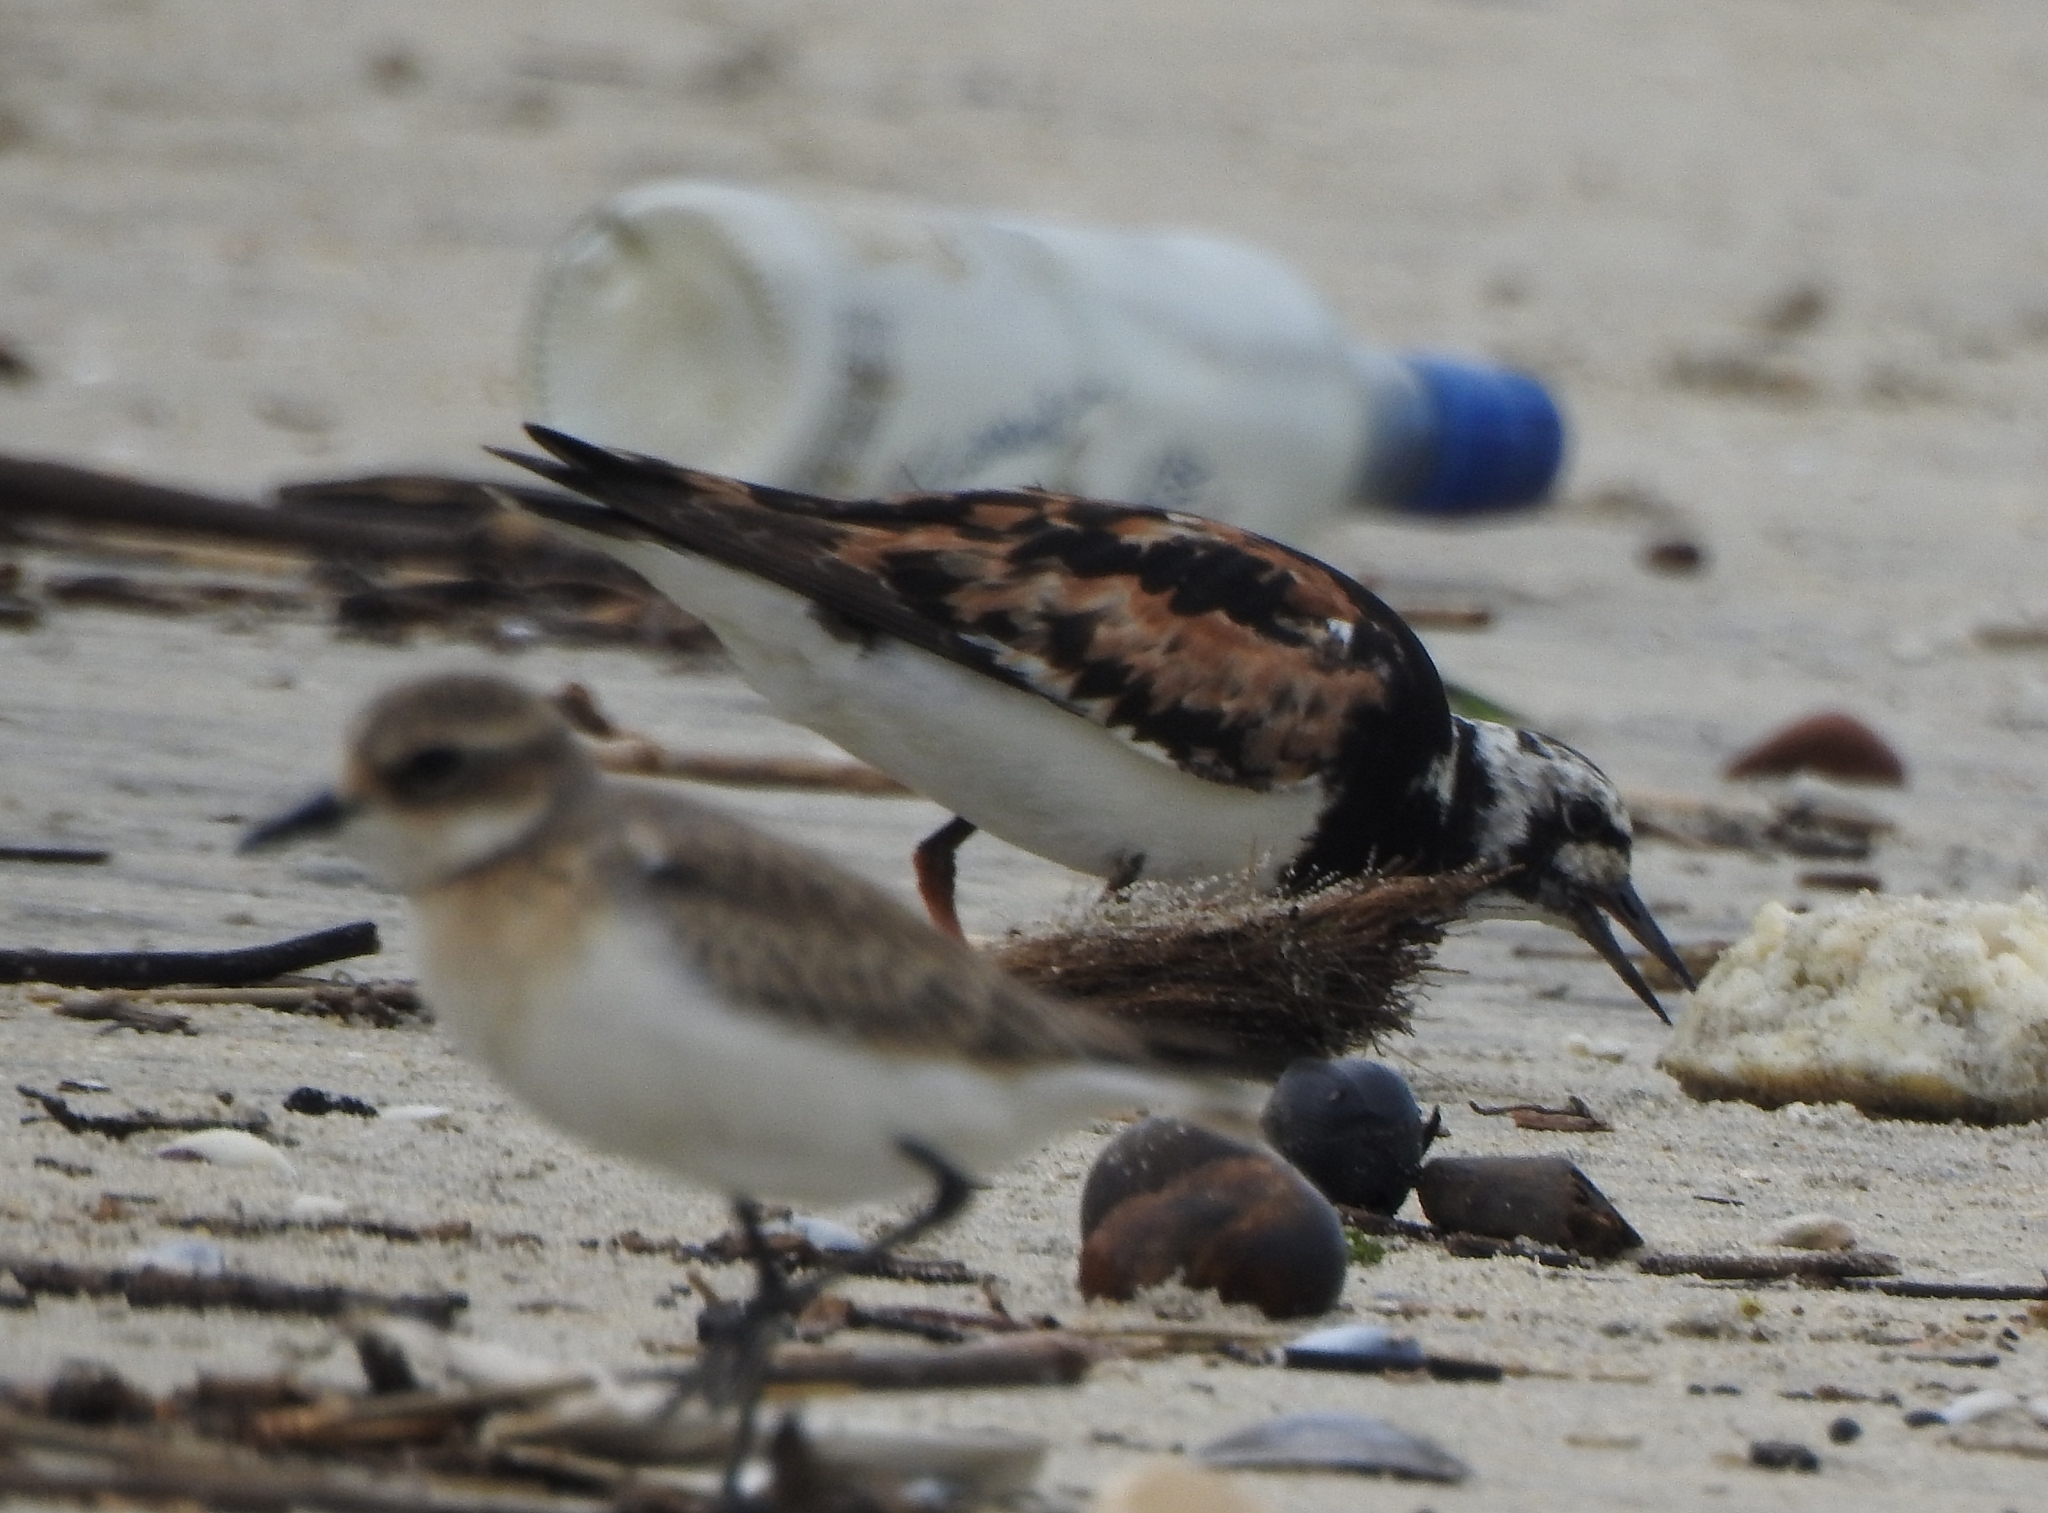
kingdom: Animalia
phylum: Chordata
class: Aves
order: Charadriiformes
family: Charadriidae
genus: Anarhynchus
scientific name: Anarhynchus
